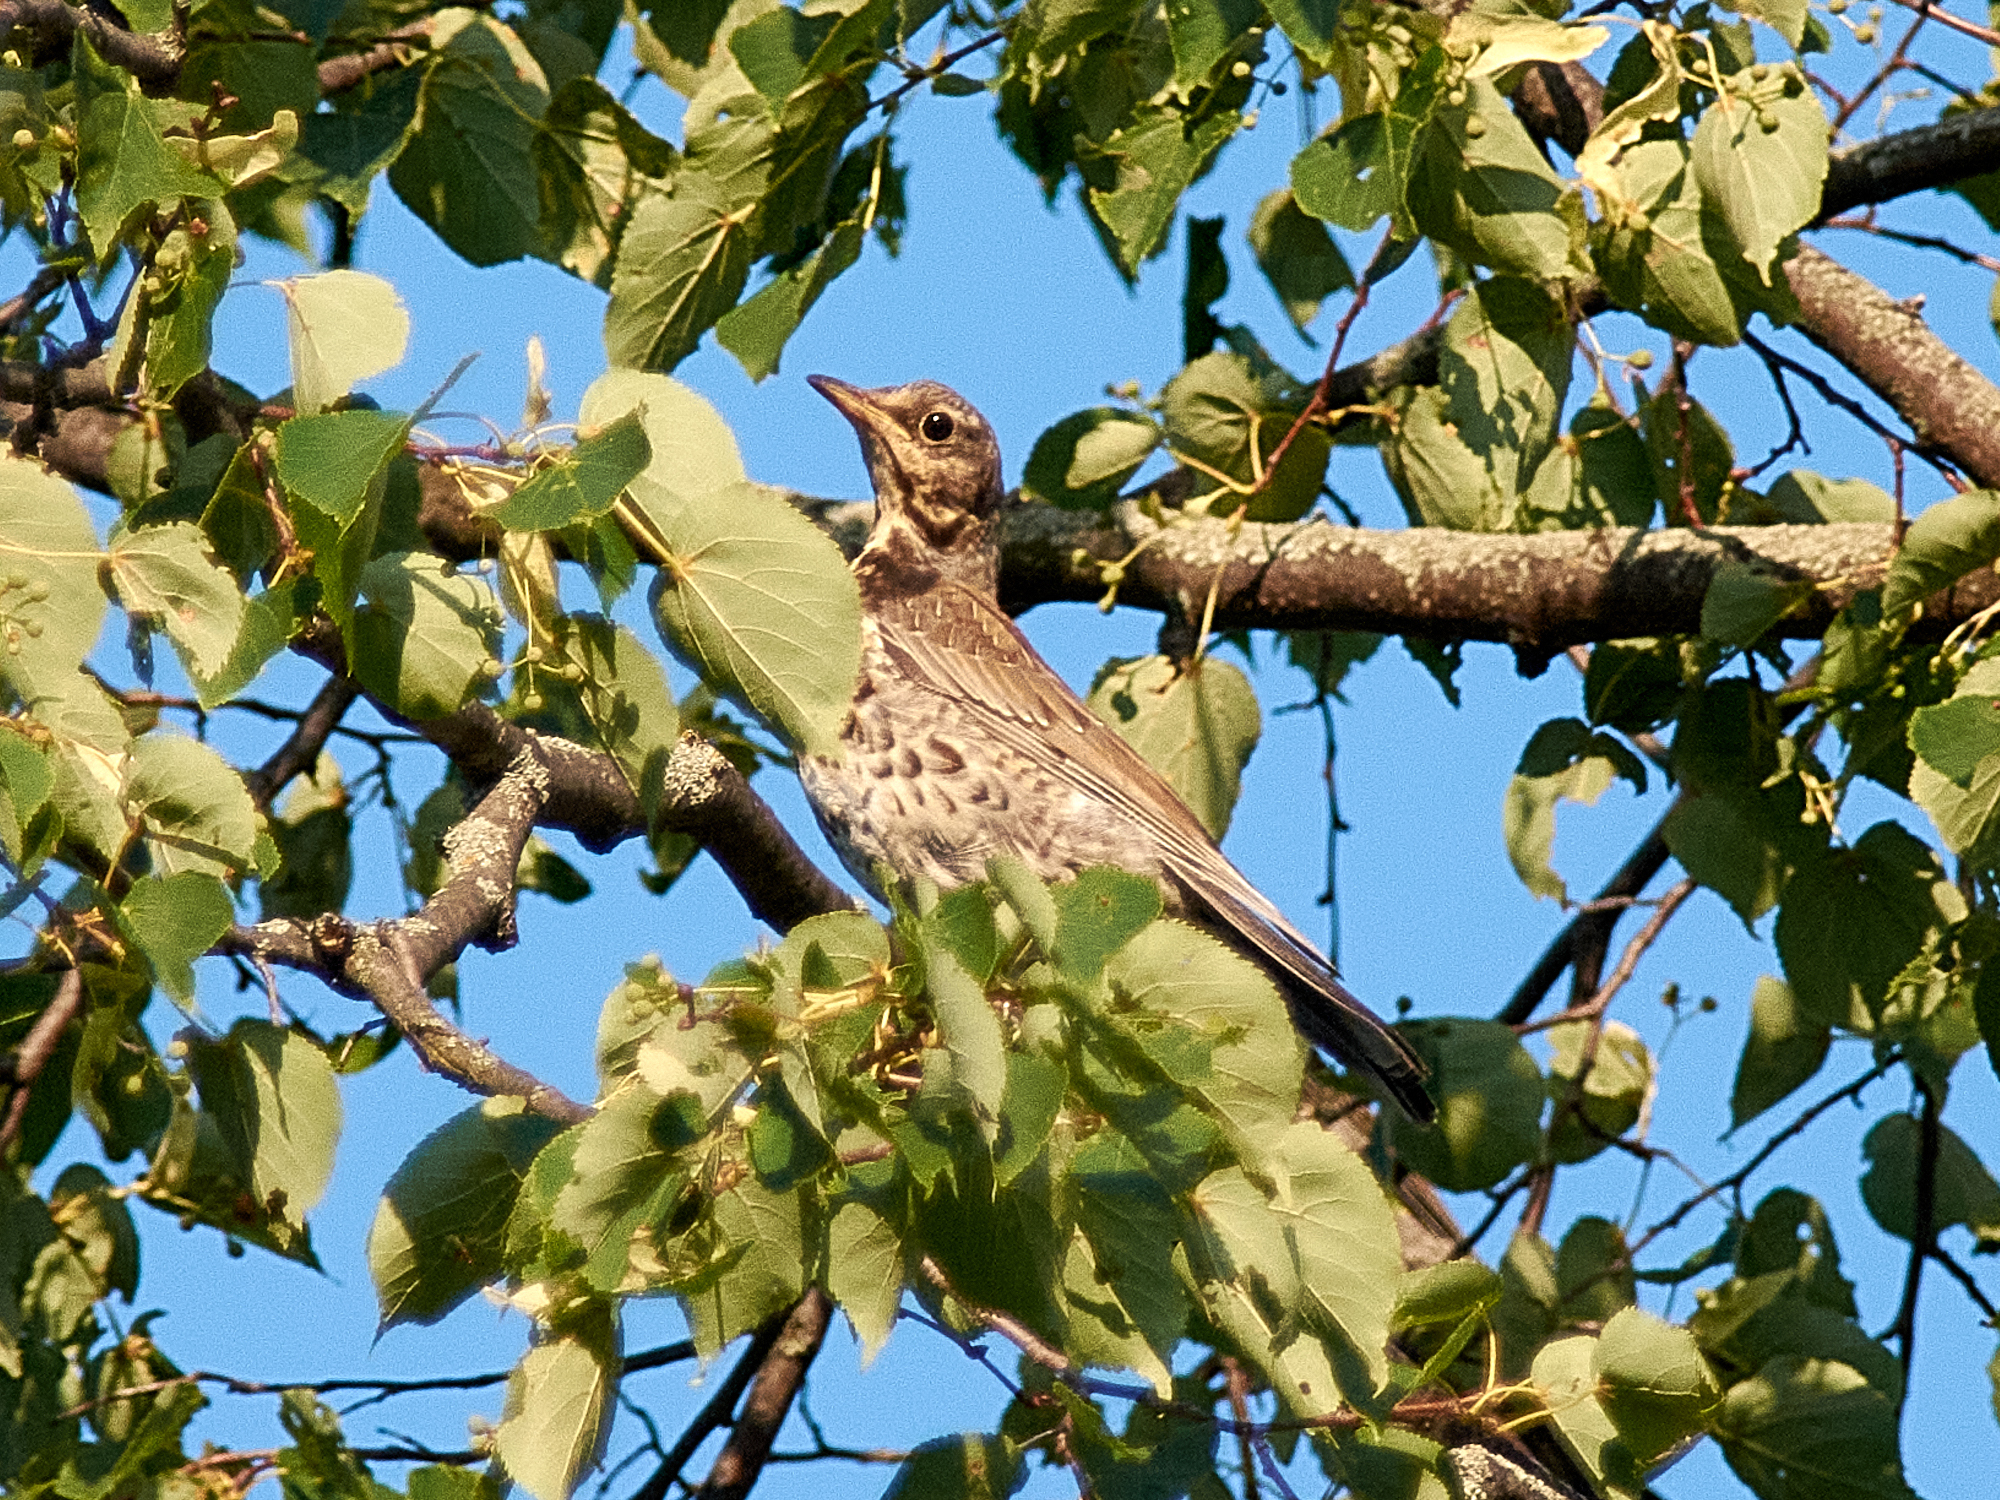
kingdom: Animalia
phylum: Chordata
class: Aves
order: Passeriformes
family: Turdidae
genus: Turdus
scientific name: Turdus pilaris
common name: Fieldfare
